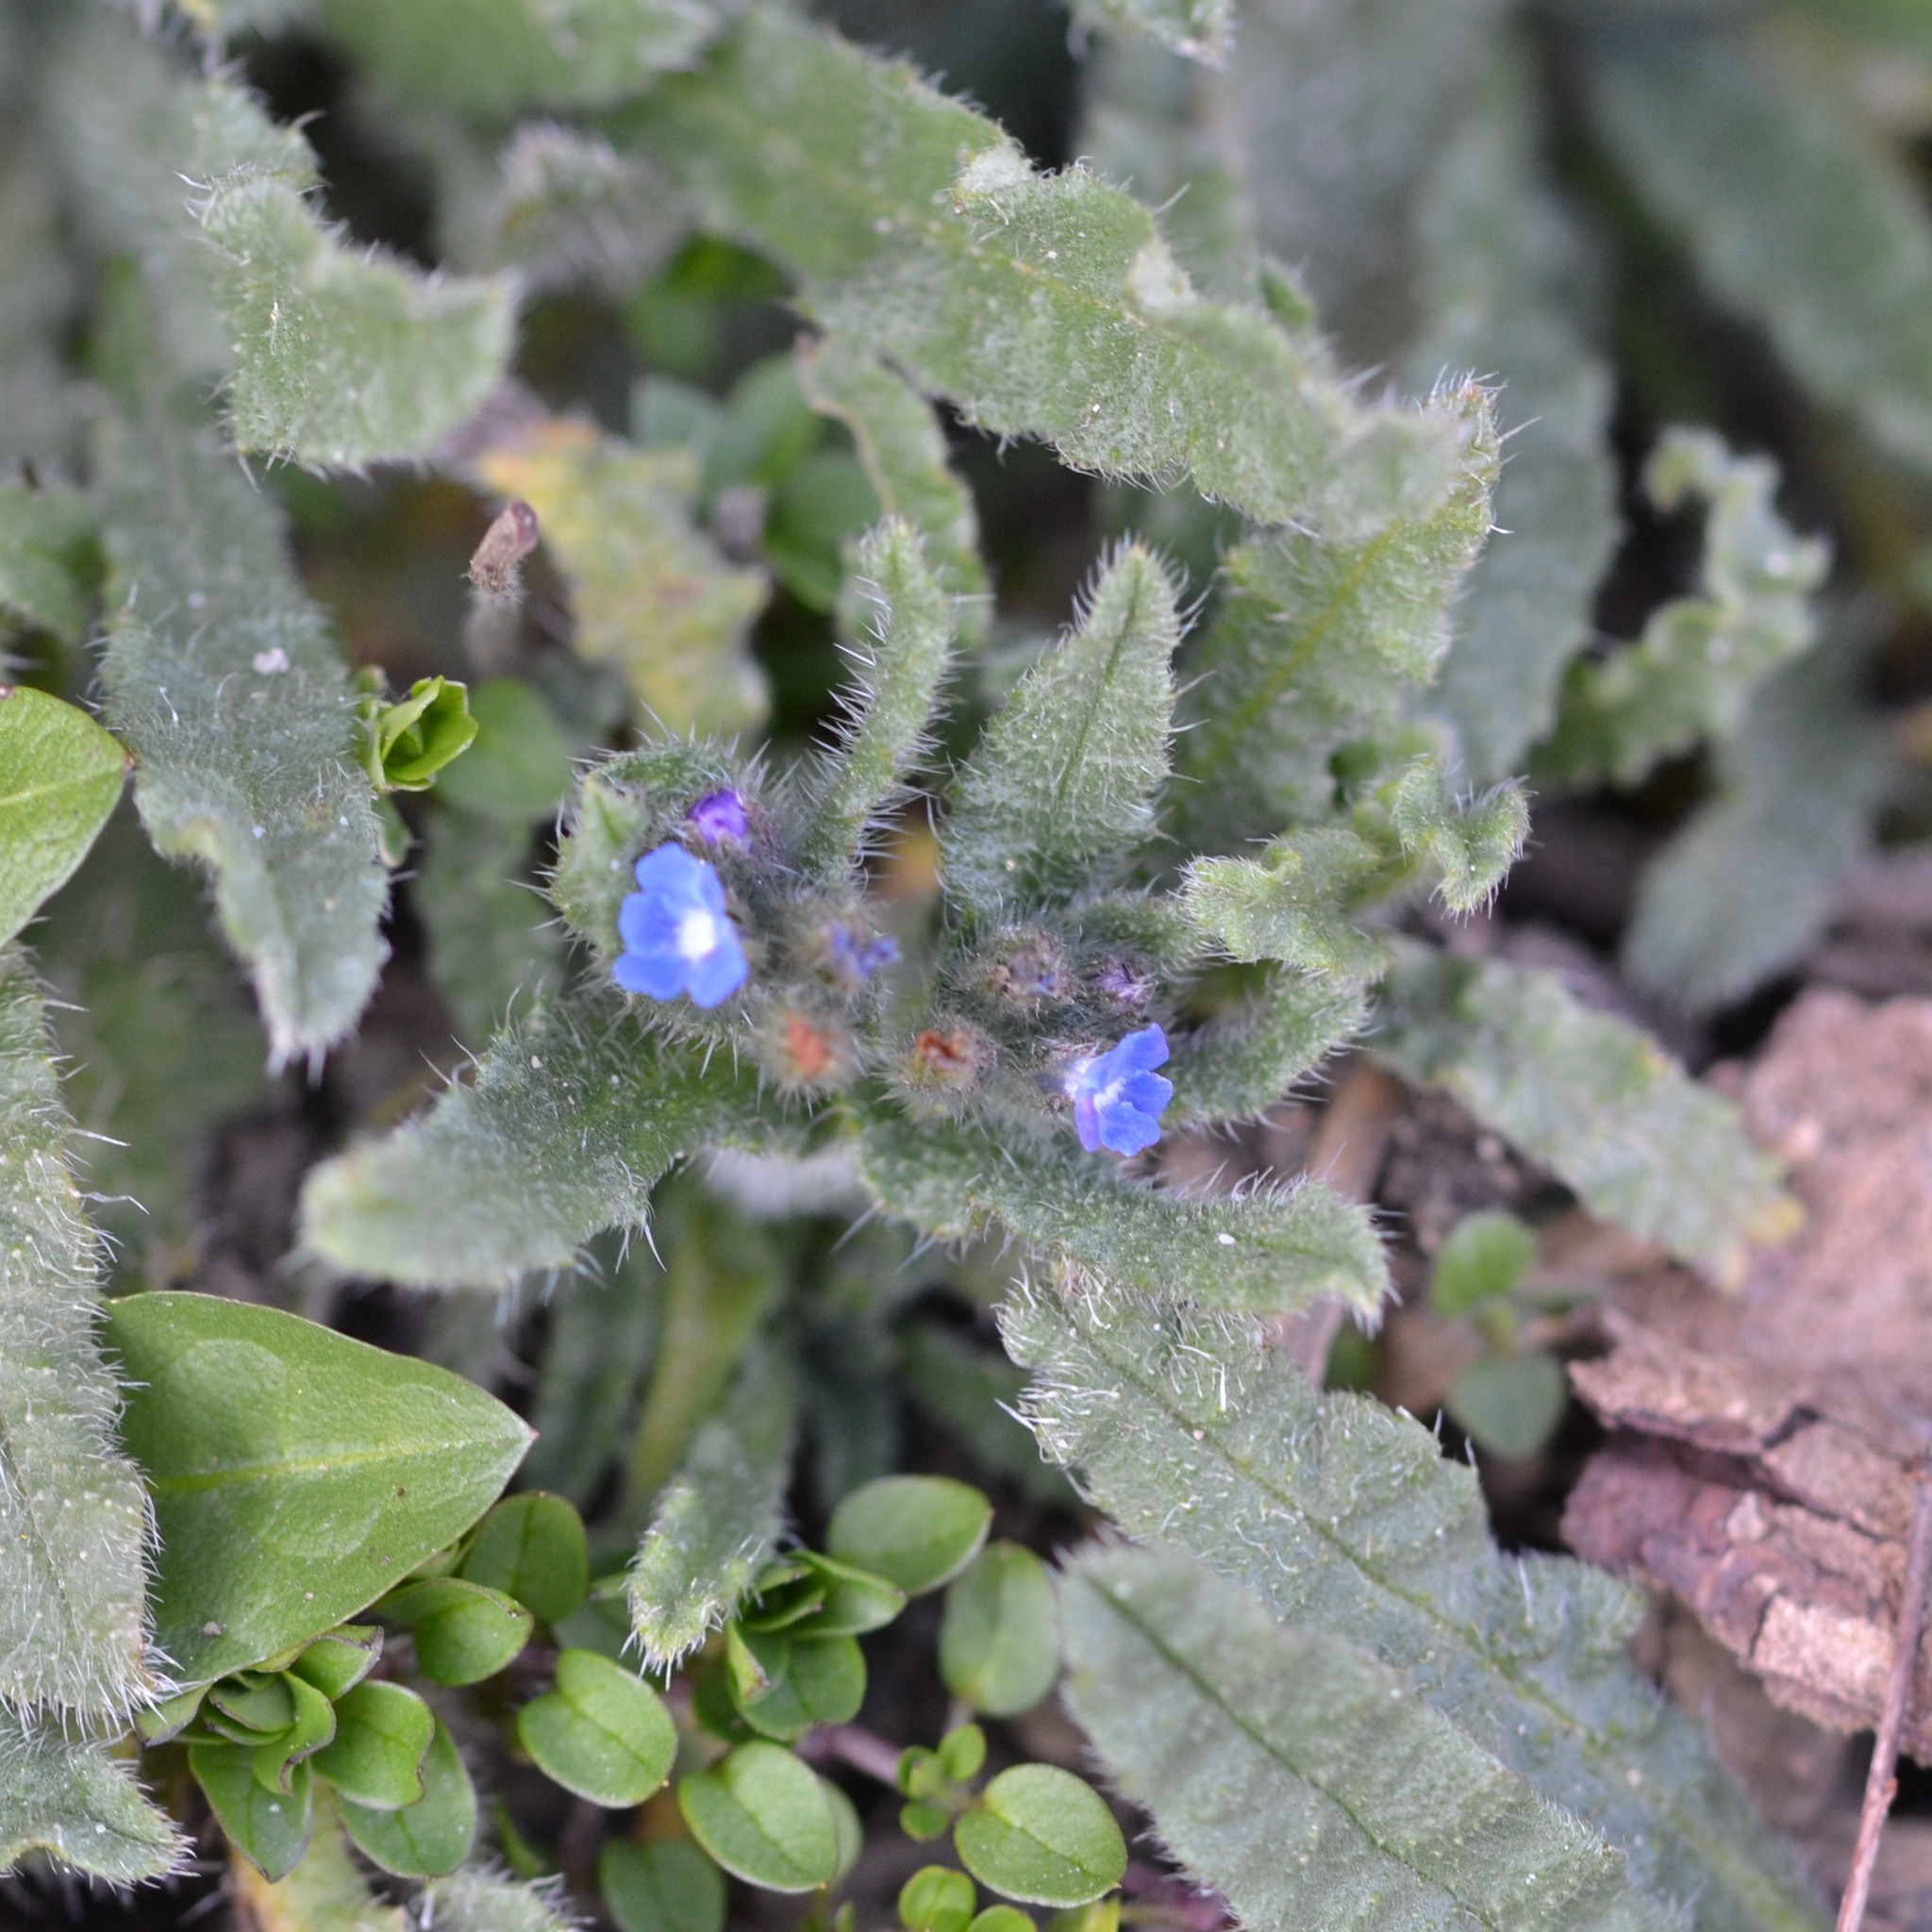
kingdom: Plantae
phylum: Tracheophyta
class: Magnoliopsida
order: Boraginales
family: Boraginaceae
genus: Lycopsis
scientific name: Lycopsis arvensis
